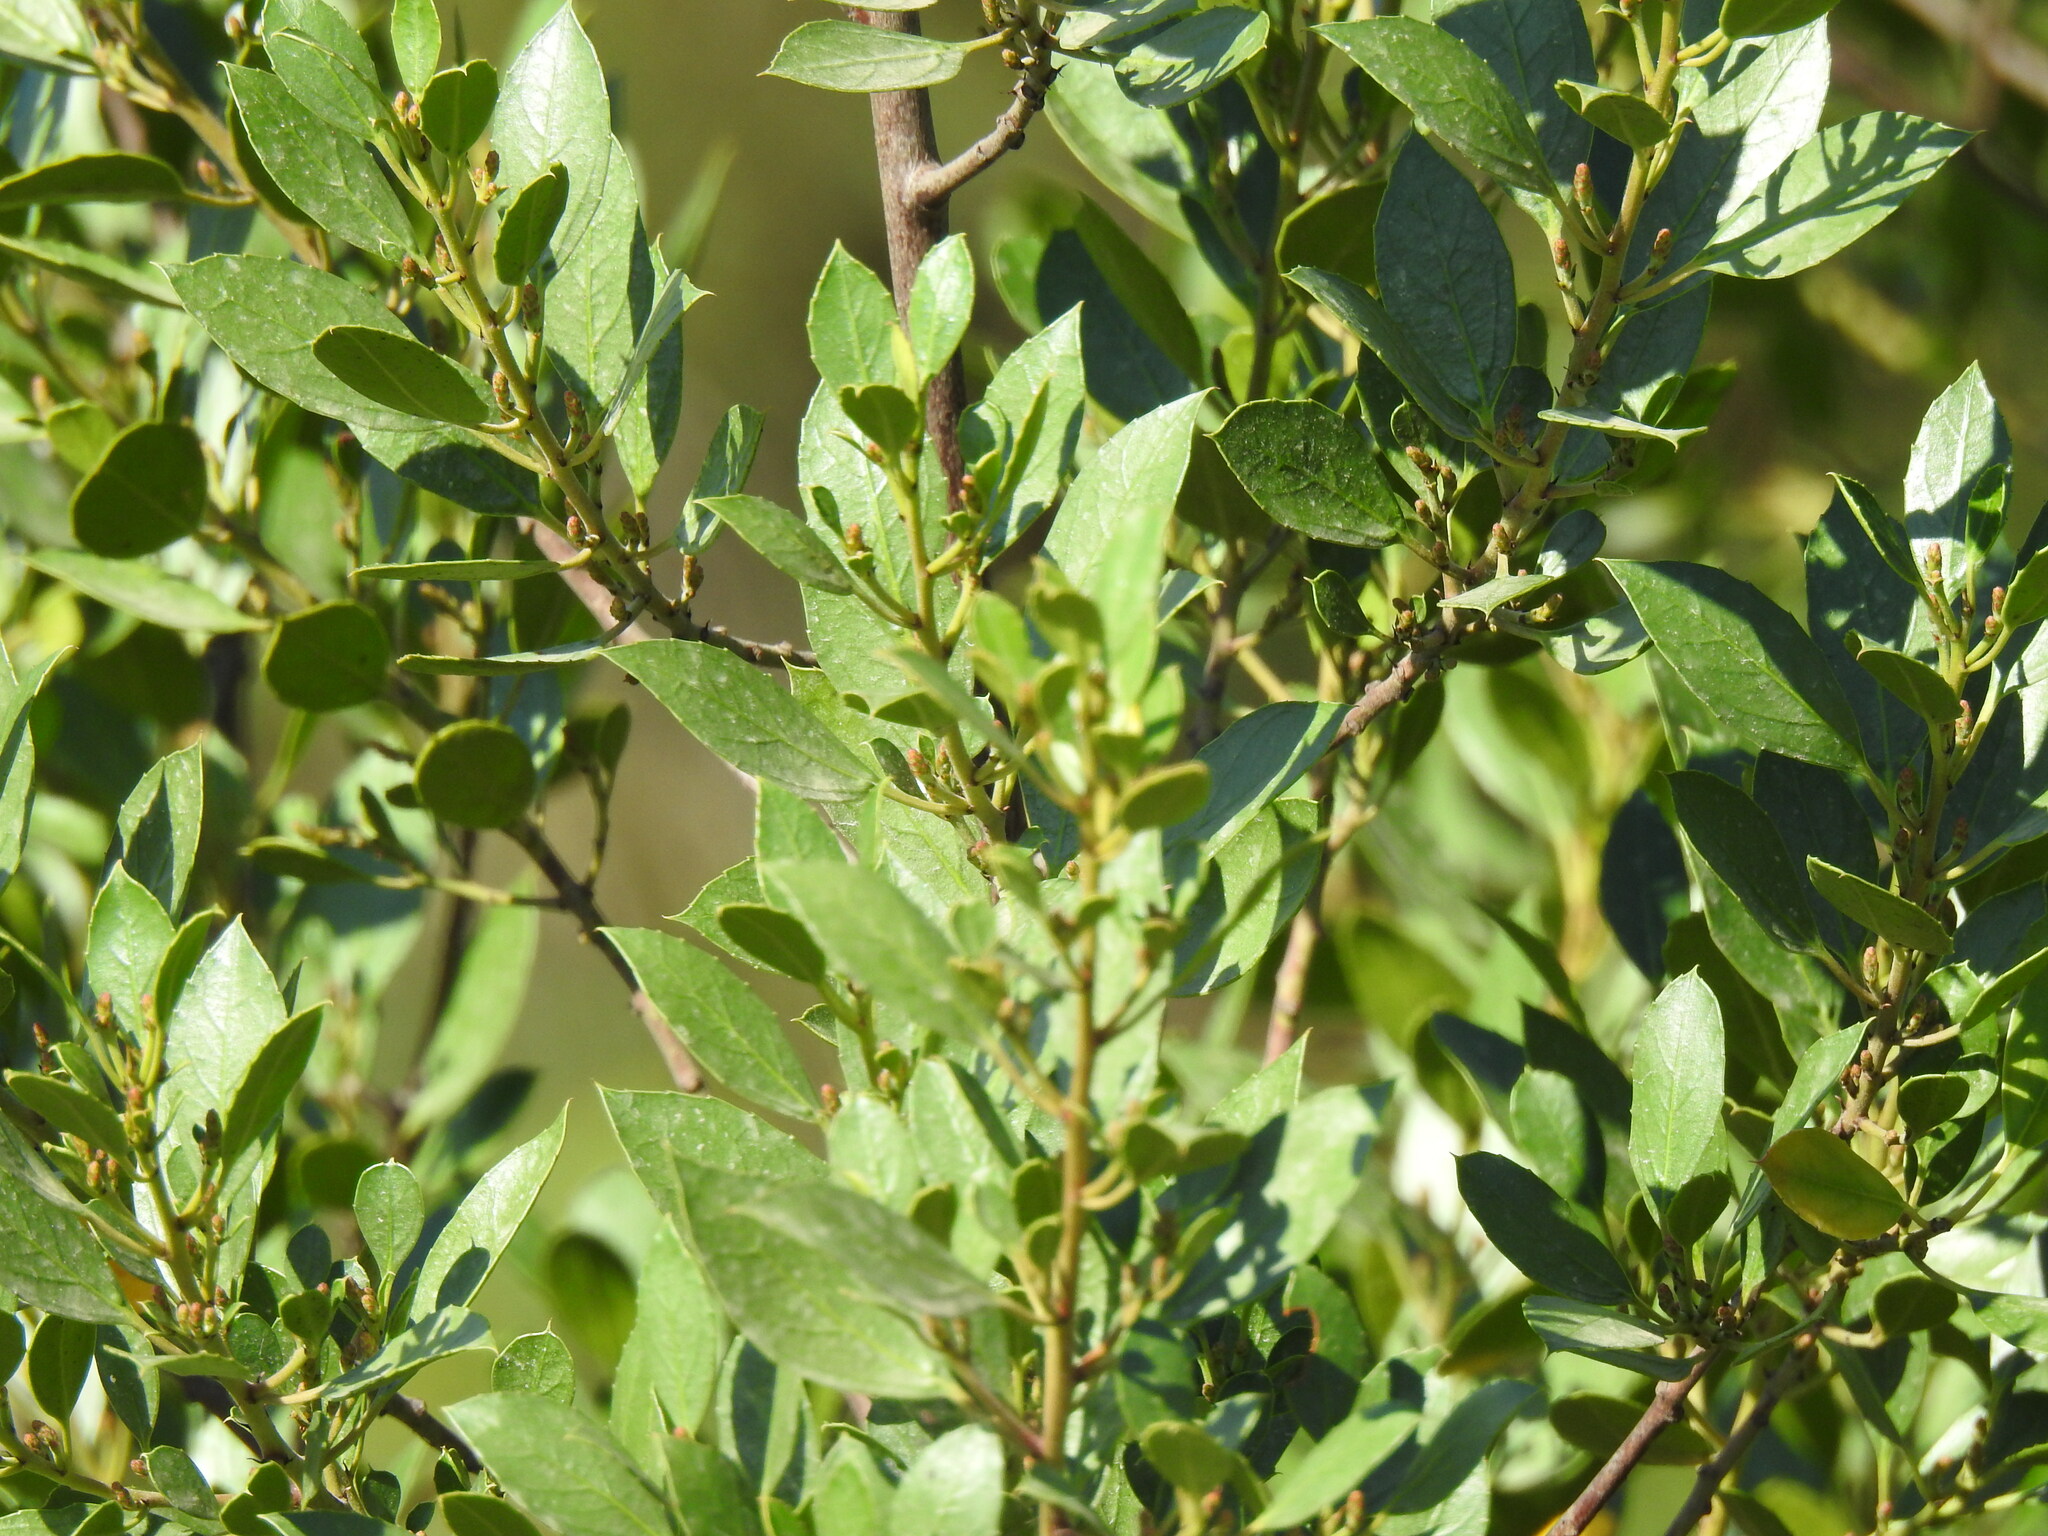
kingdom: Plantae
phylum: Tracheophyta
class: Magnoliopsida
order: Rosales
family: Rhamnaceae
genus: Rhamnus
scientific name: Rhamnus alaternus
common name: Mediterranean buckthorn
